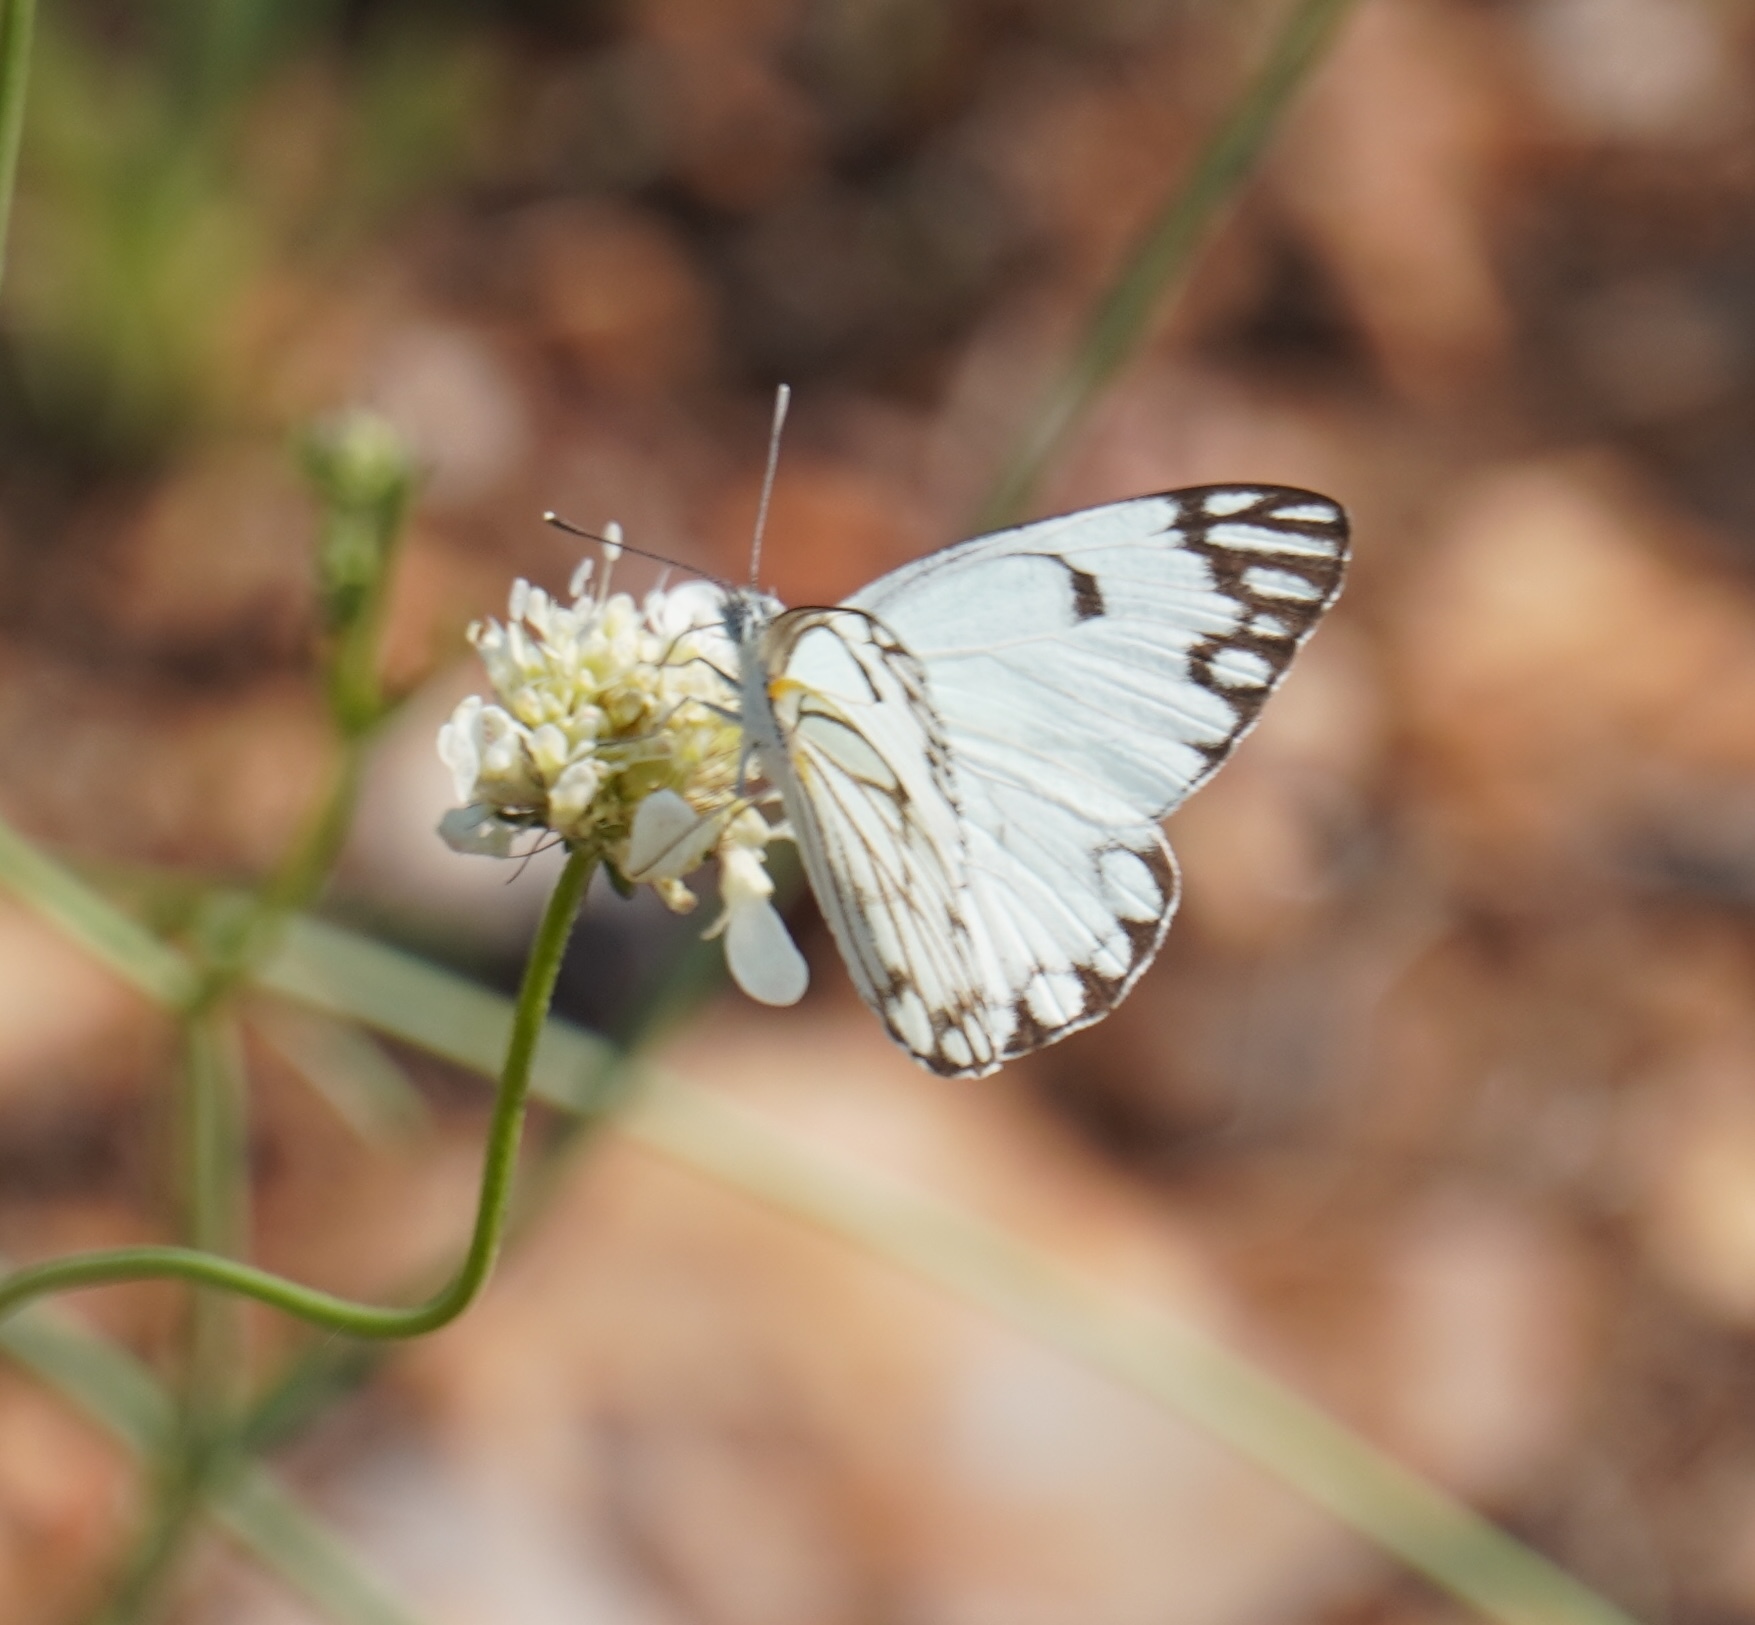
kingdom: Animalia
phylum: Arthropoda
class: Insecta
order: Lepidoptera
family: Pieridae
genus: Belenois
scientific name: Belenois aurota
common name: Brown-veined white
